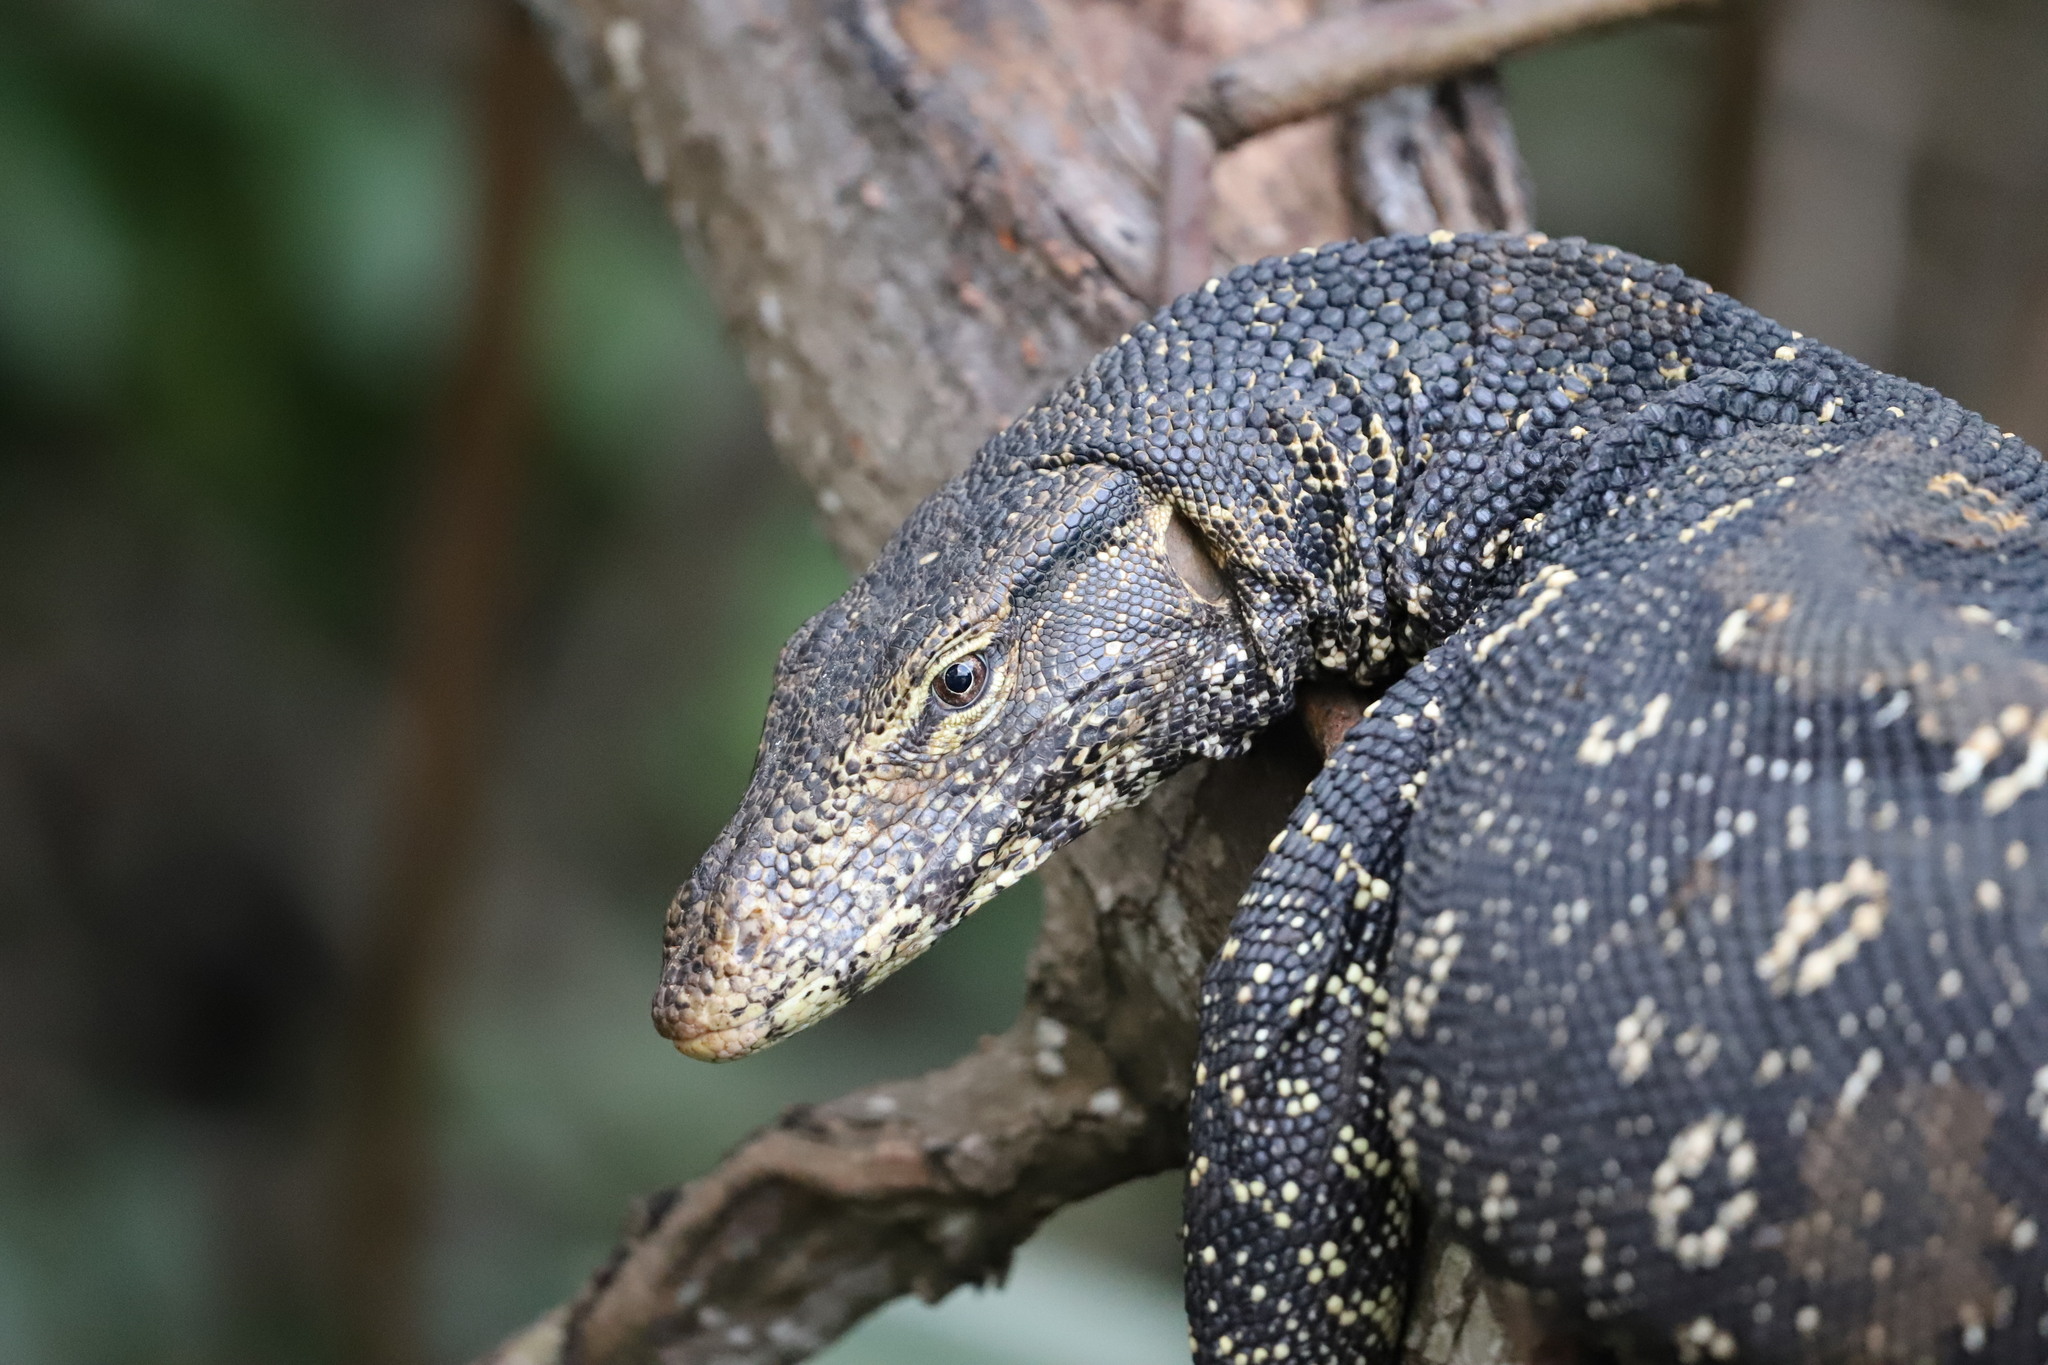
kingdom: Animalia
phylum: Chordata
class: Squamata
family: Varanidae
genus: Varanus
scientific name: Varanus salvator
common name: Common water monitor
